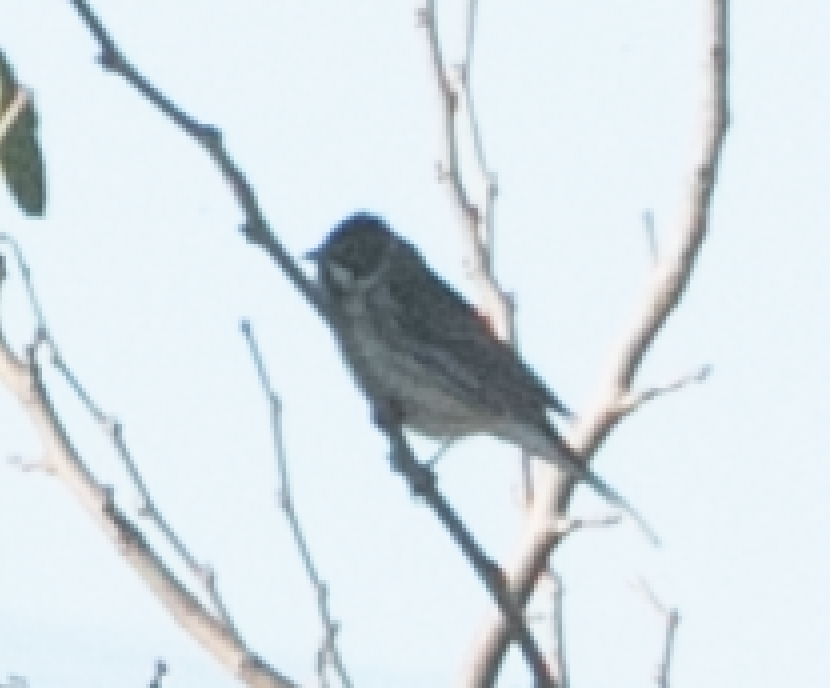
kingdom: Animalia
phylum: Chordata
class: Aves
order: Passeriformes
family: Emberizidae
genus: Emberiza
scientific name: Emberiza schoeniclus
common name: Reed bunting
